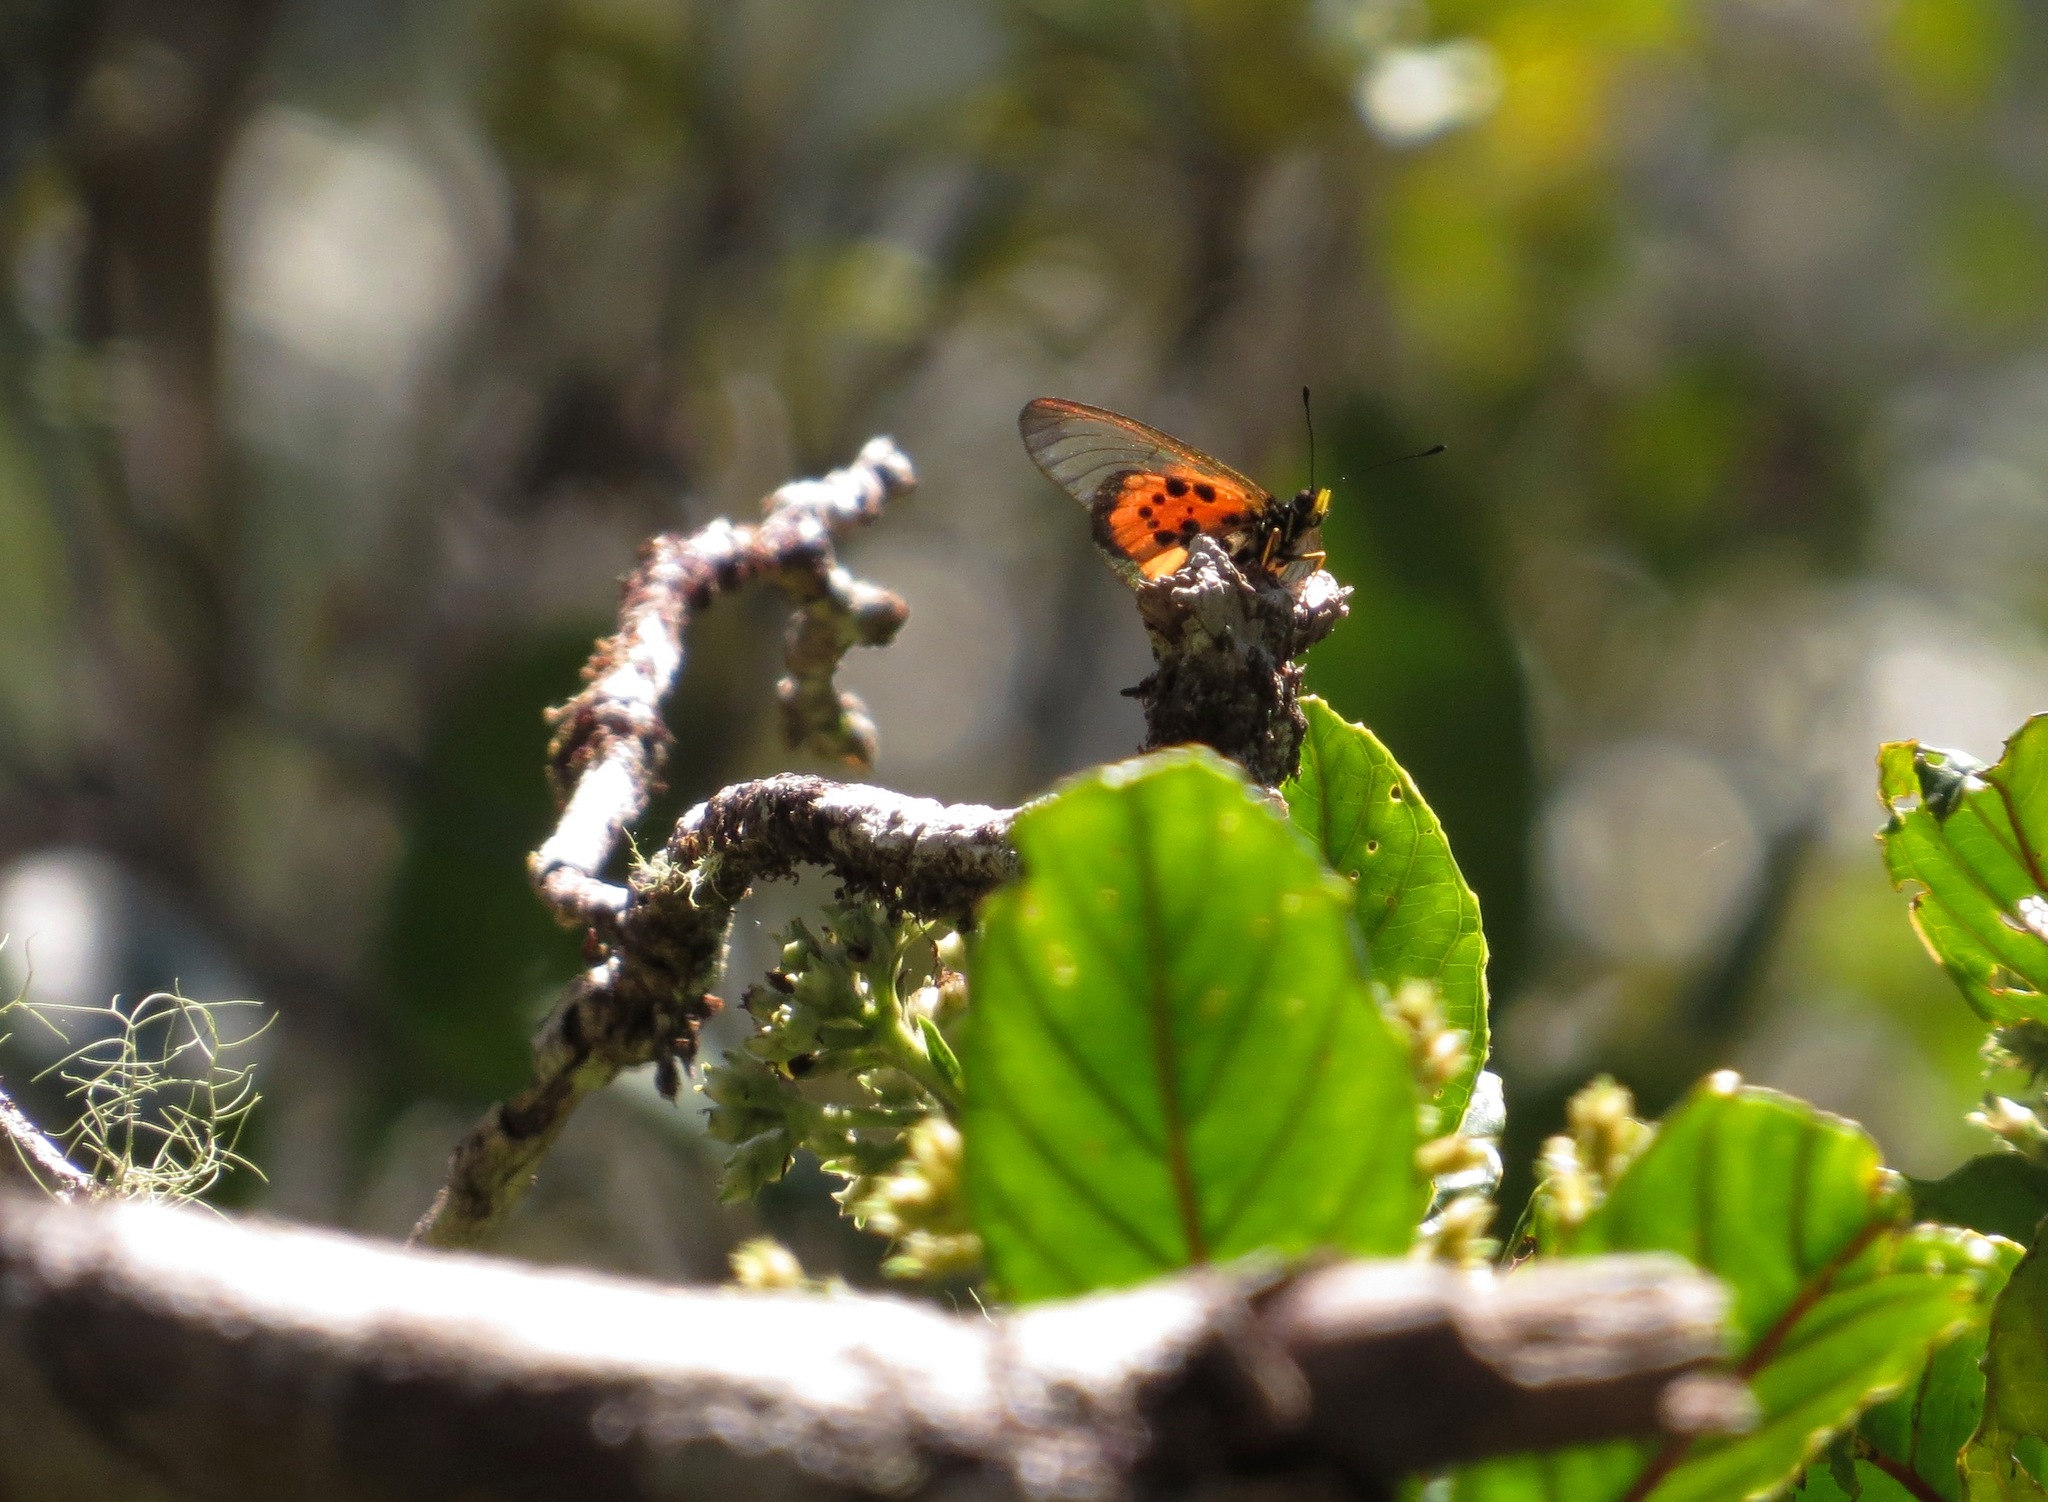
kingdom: Animalia
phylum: Arthropoda
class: Insecta
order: Lepidoptera
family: Nymphalidae
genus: Acraea
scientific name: Acraea
